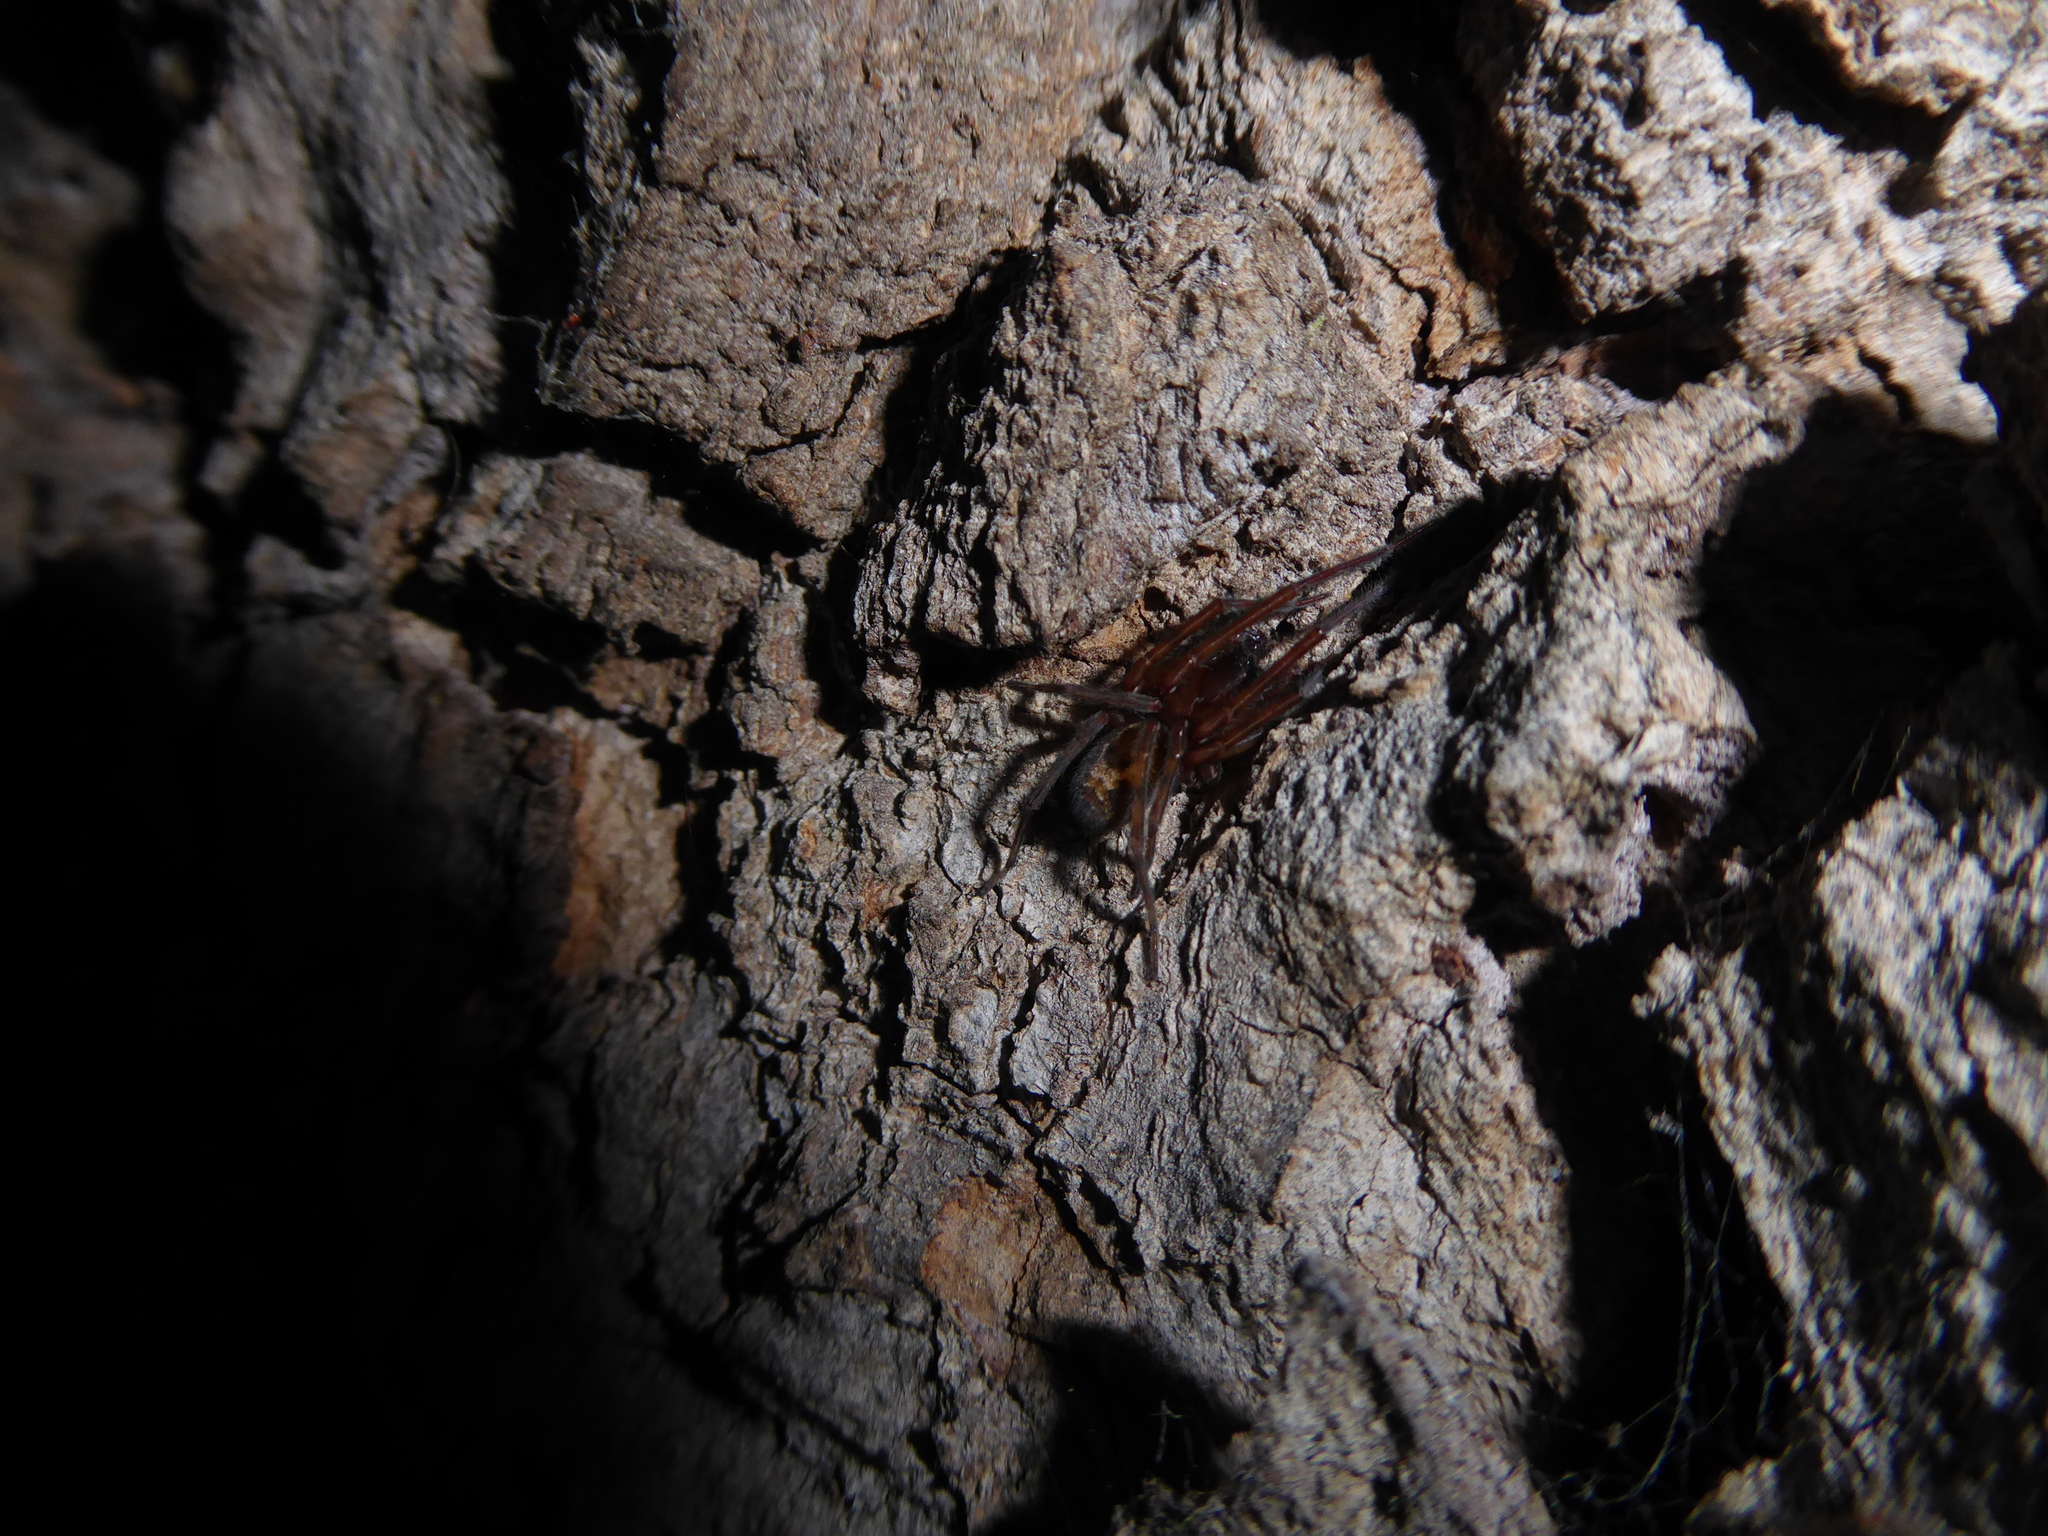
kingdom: Animalia
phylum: Arthropoda
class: Arachnida
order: Araneae
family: Amaurobiidae
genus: Amaurobius
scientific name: Amaurobius
